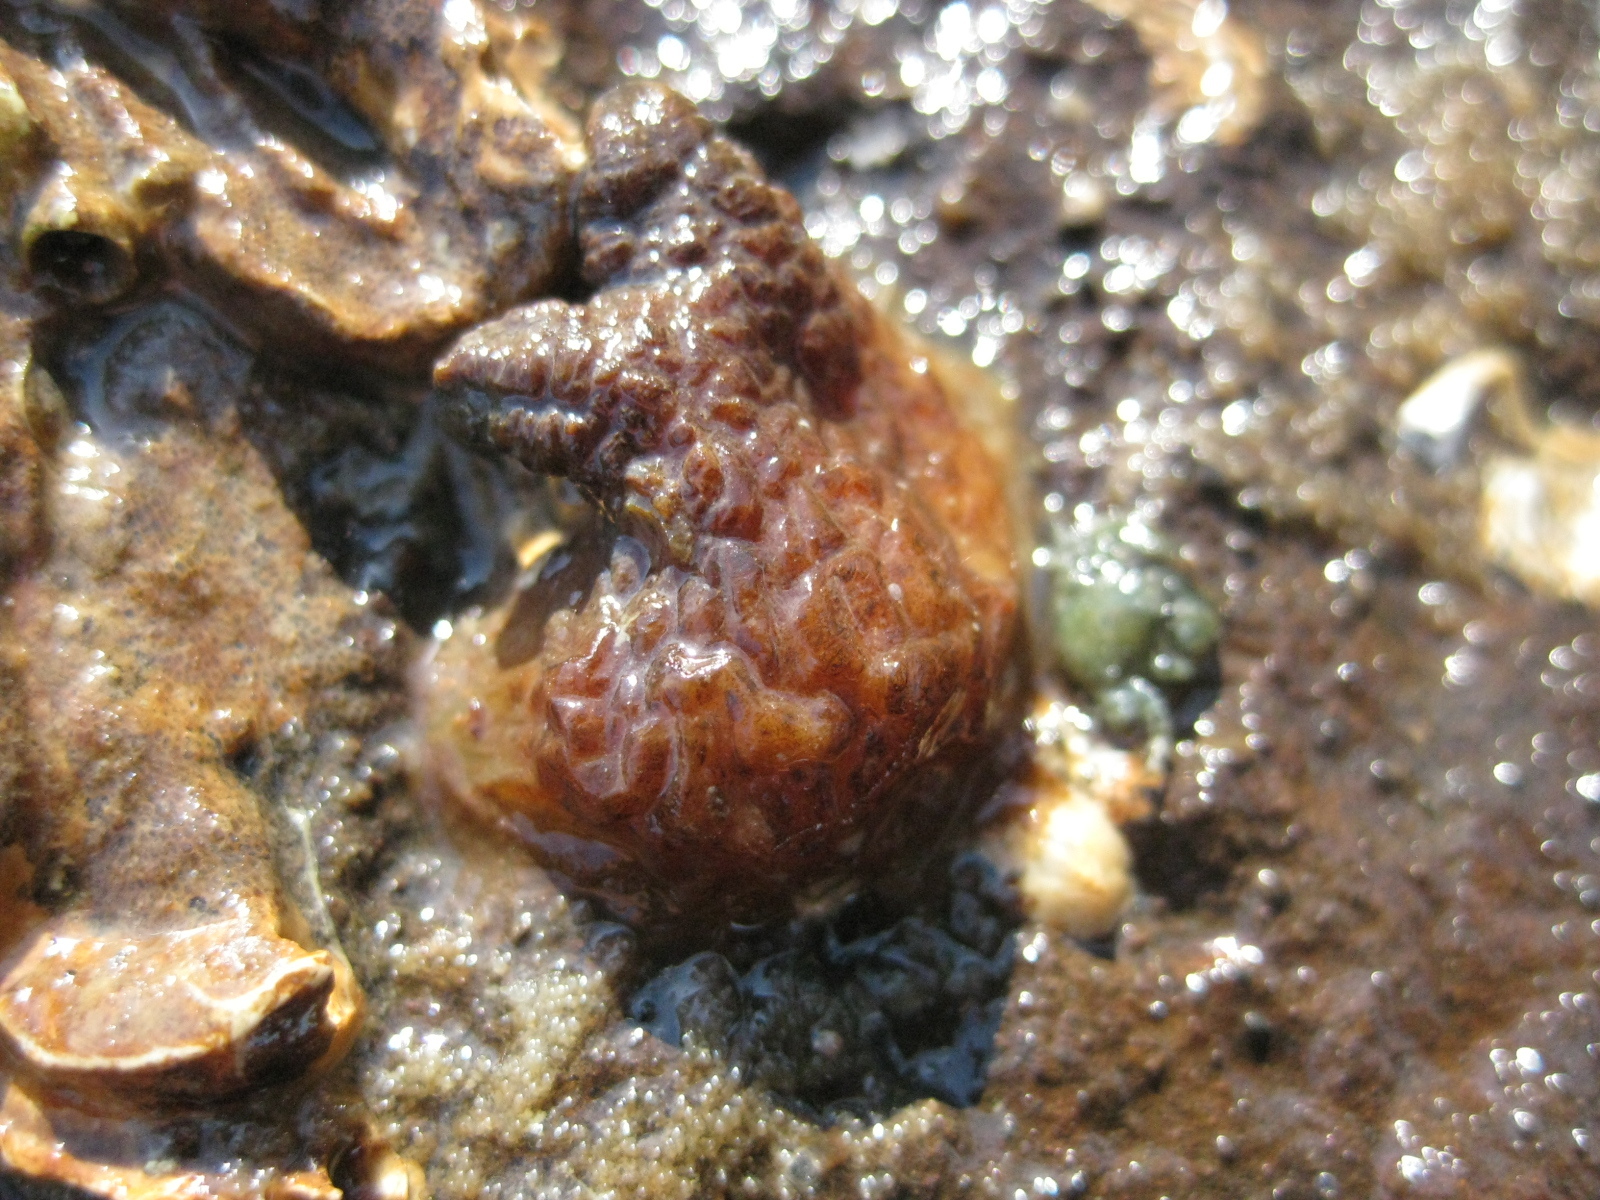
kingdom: Animalia
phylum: Chordata
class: Ascidiacea
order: Stolidobranchia
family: Styelidae
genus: Asterocarpa
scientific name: Asterocarpa humilis
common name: Compass sea squirt
